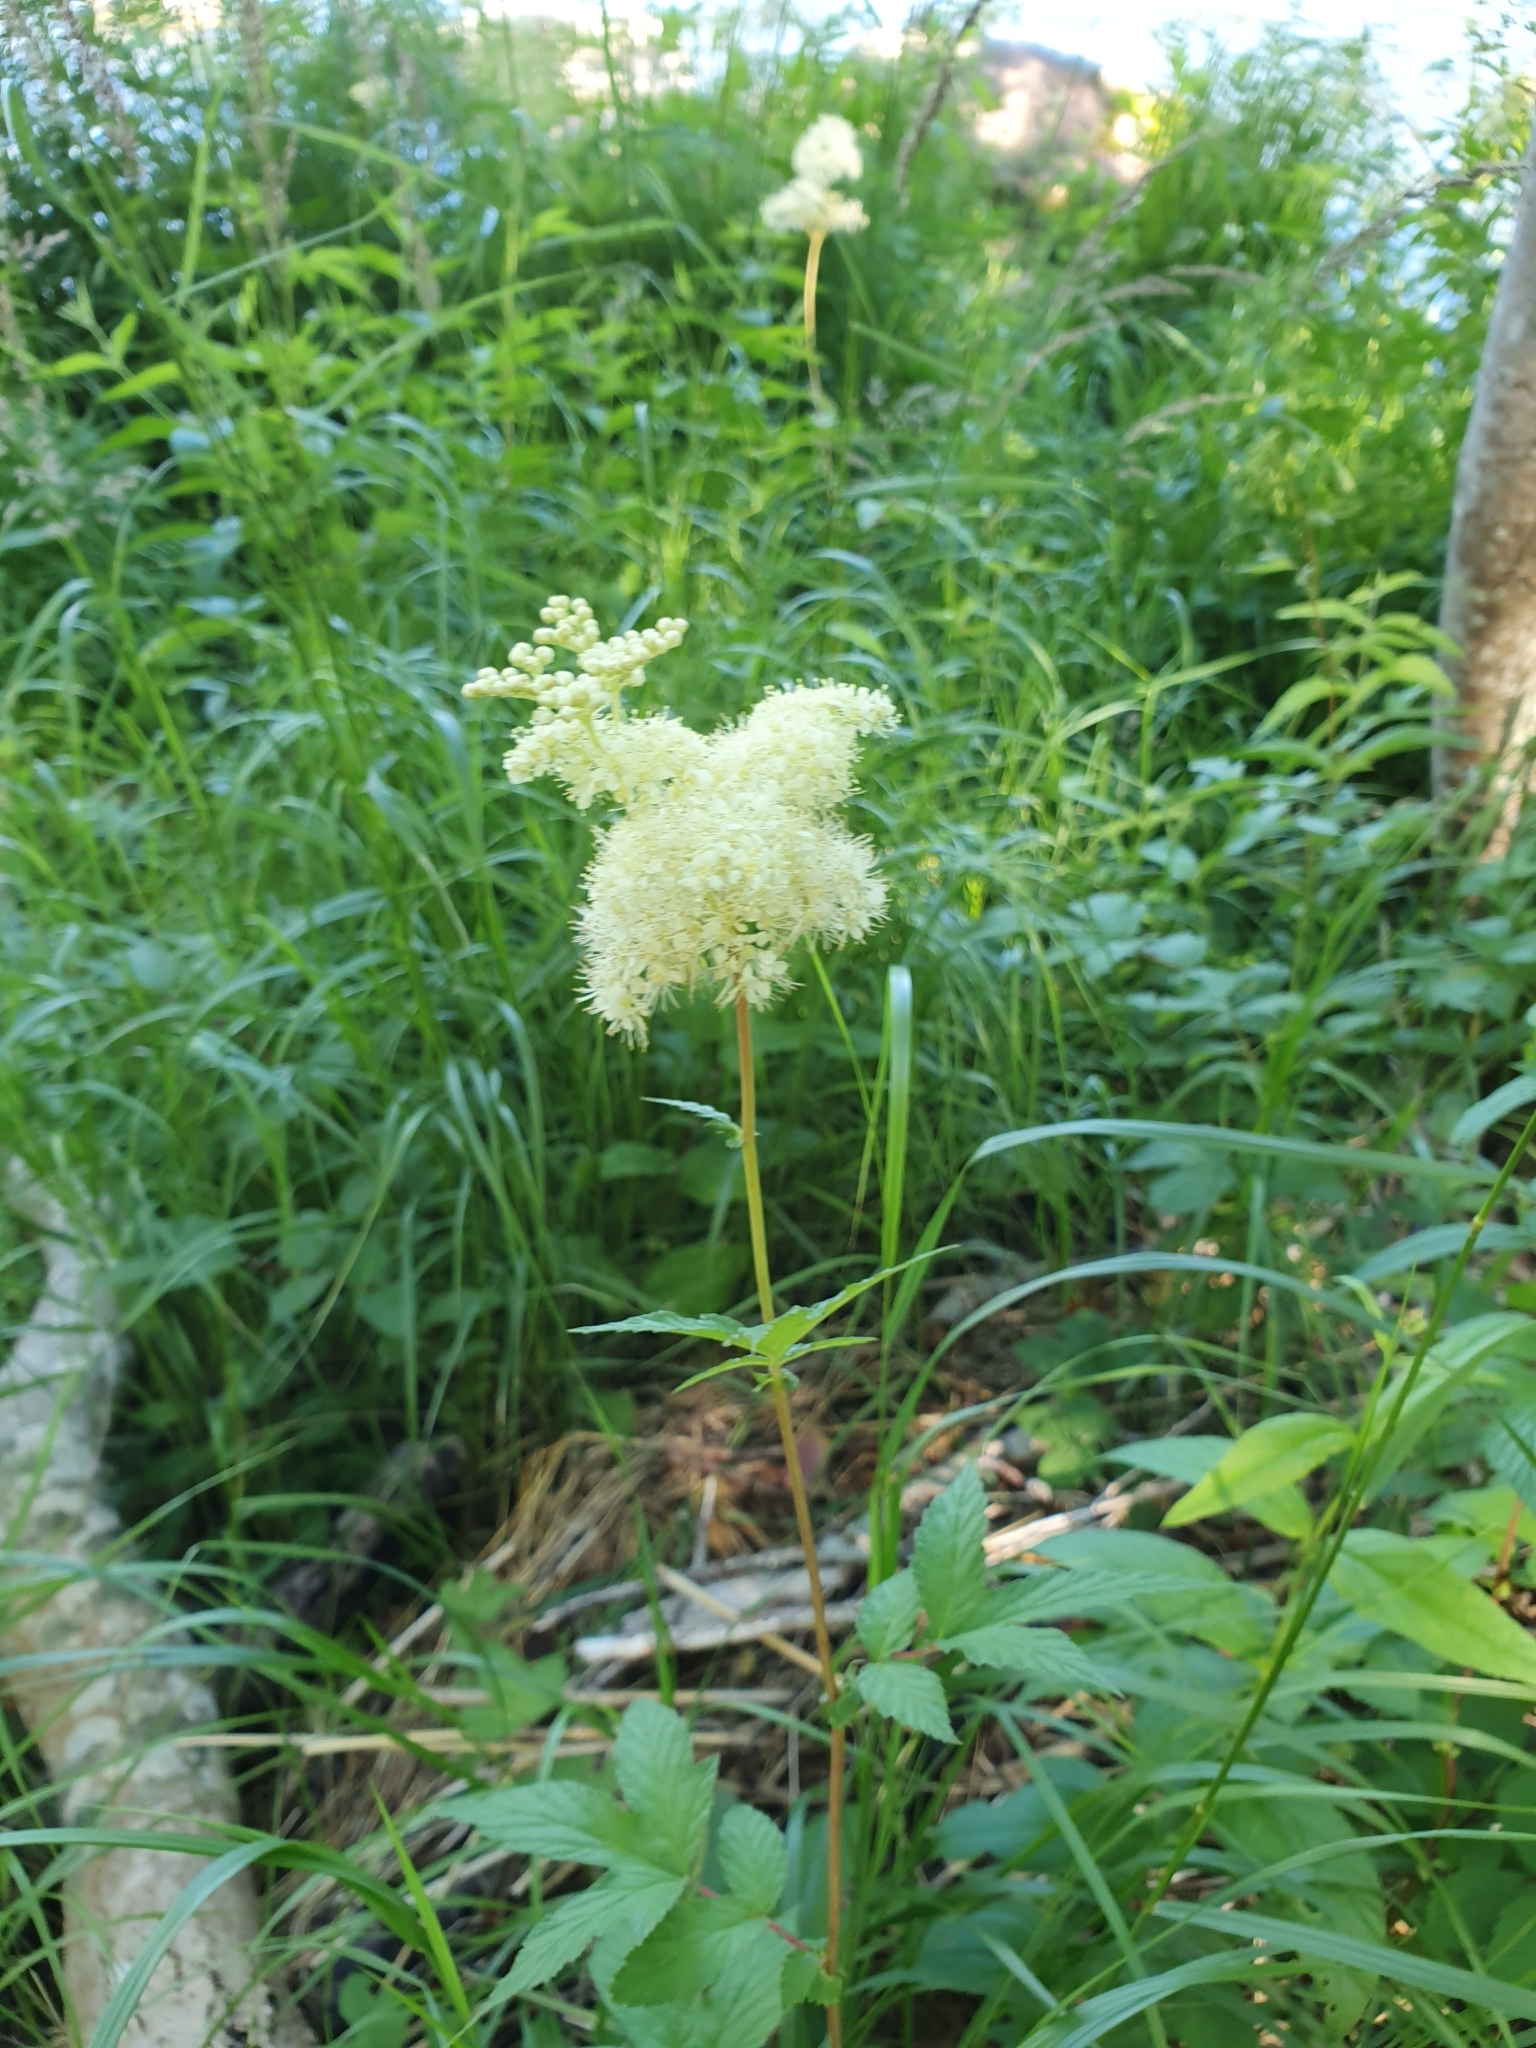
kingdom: Plantae
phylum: Tracheophyta
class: Magnoliopsida
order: Rosales
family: Rosaceae
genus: Filipendula
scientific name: Filipendula ulmaria
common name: Meadowsweet
